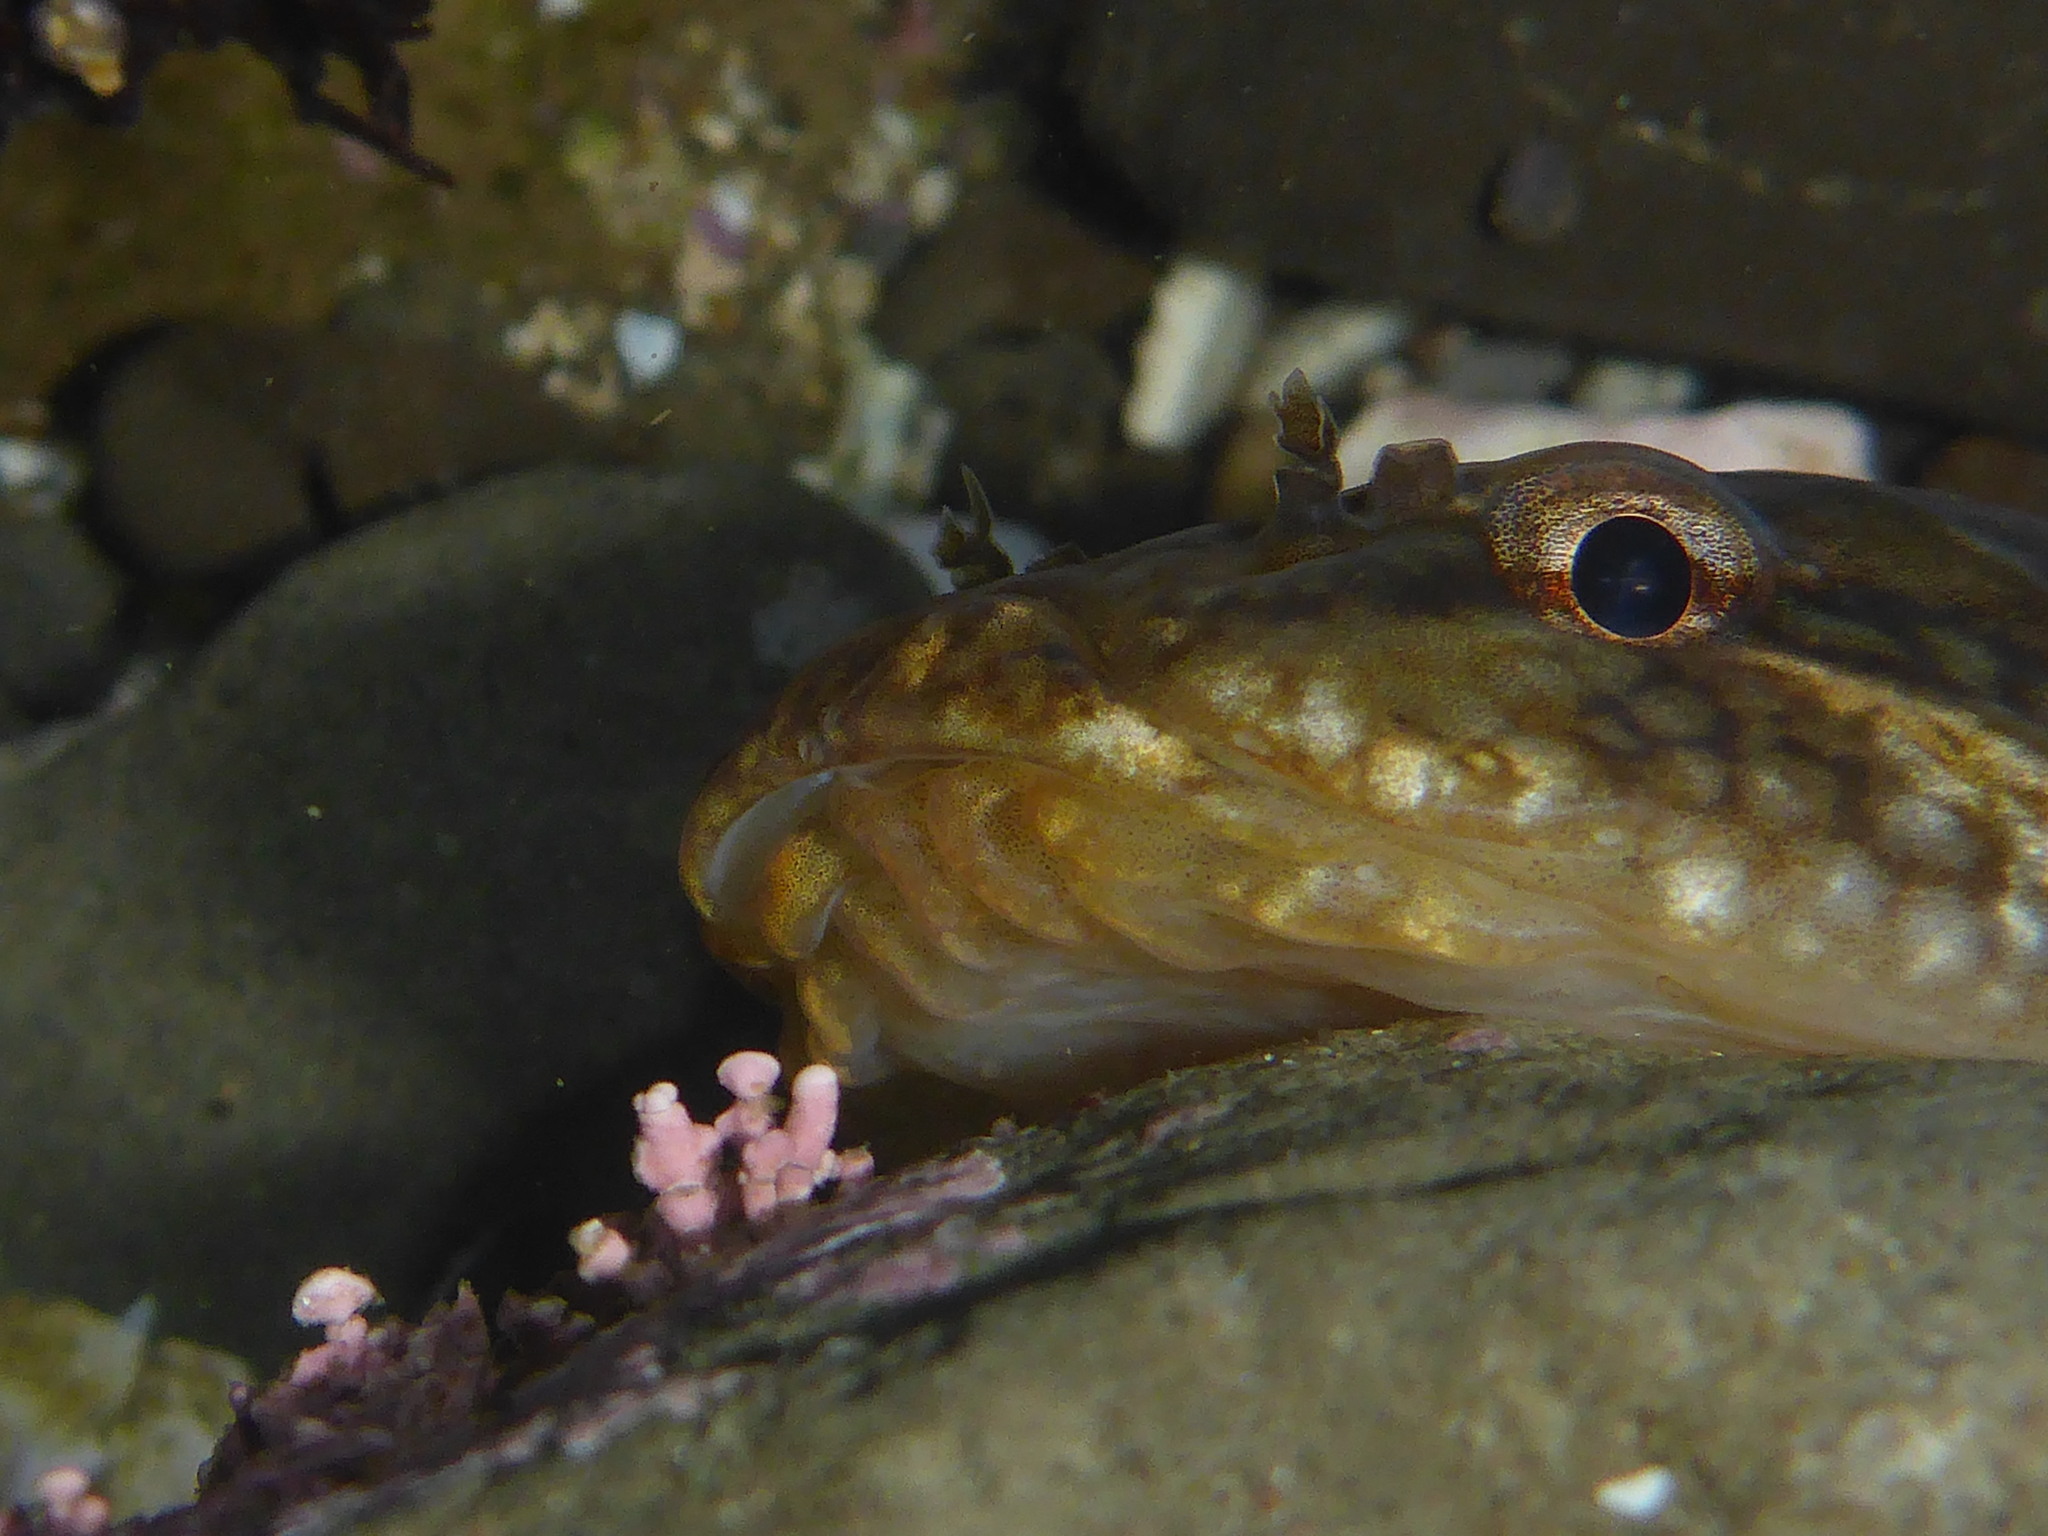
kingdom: Animalia
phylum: Chordata
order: Gobiesociformes
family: Gobiesocidae
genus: Gobiesox
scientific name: Gobiesox maeandricus
